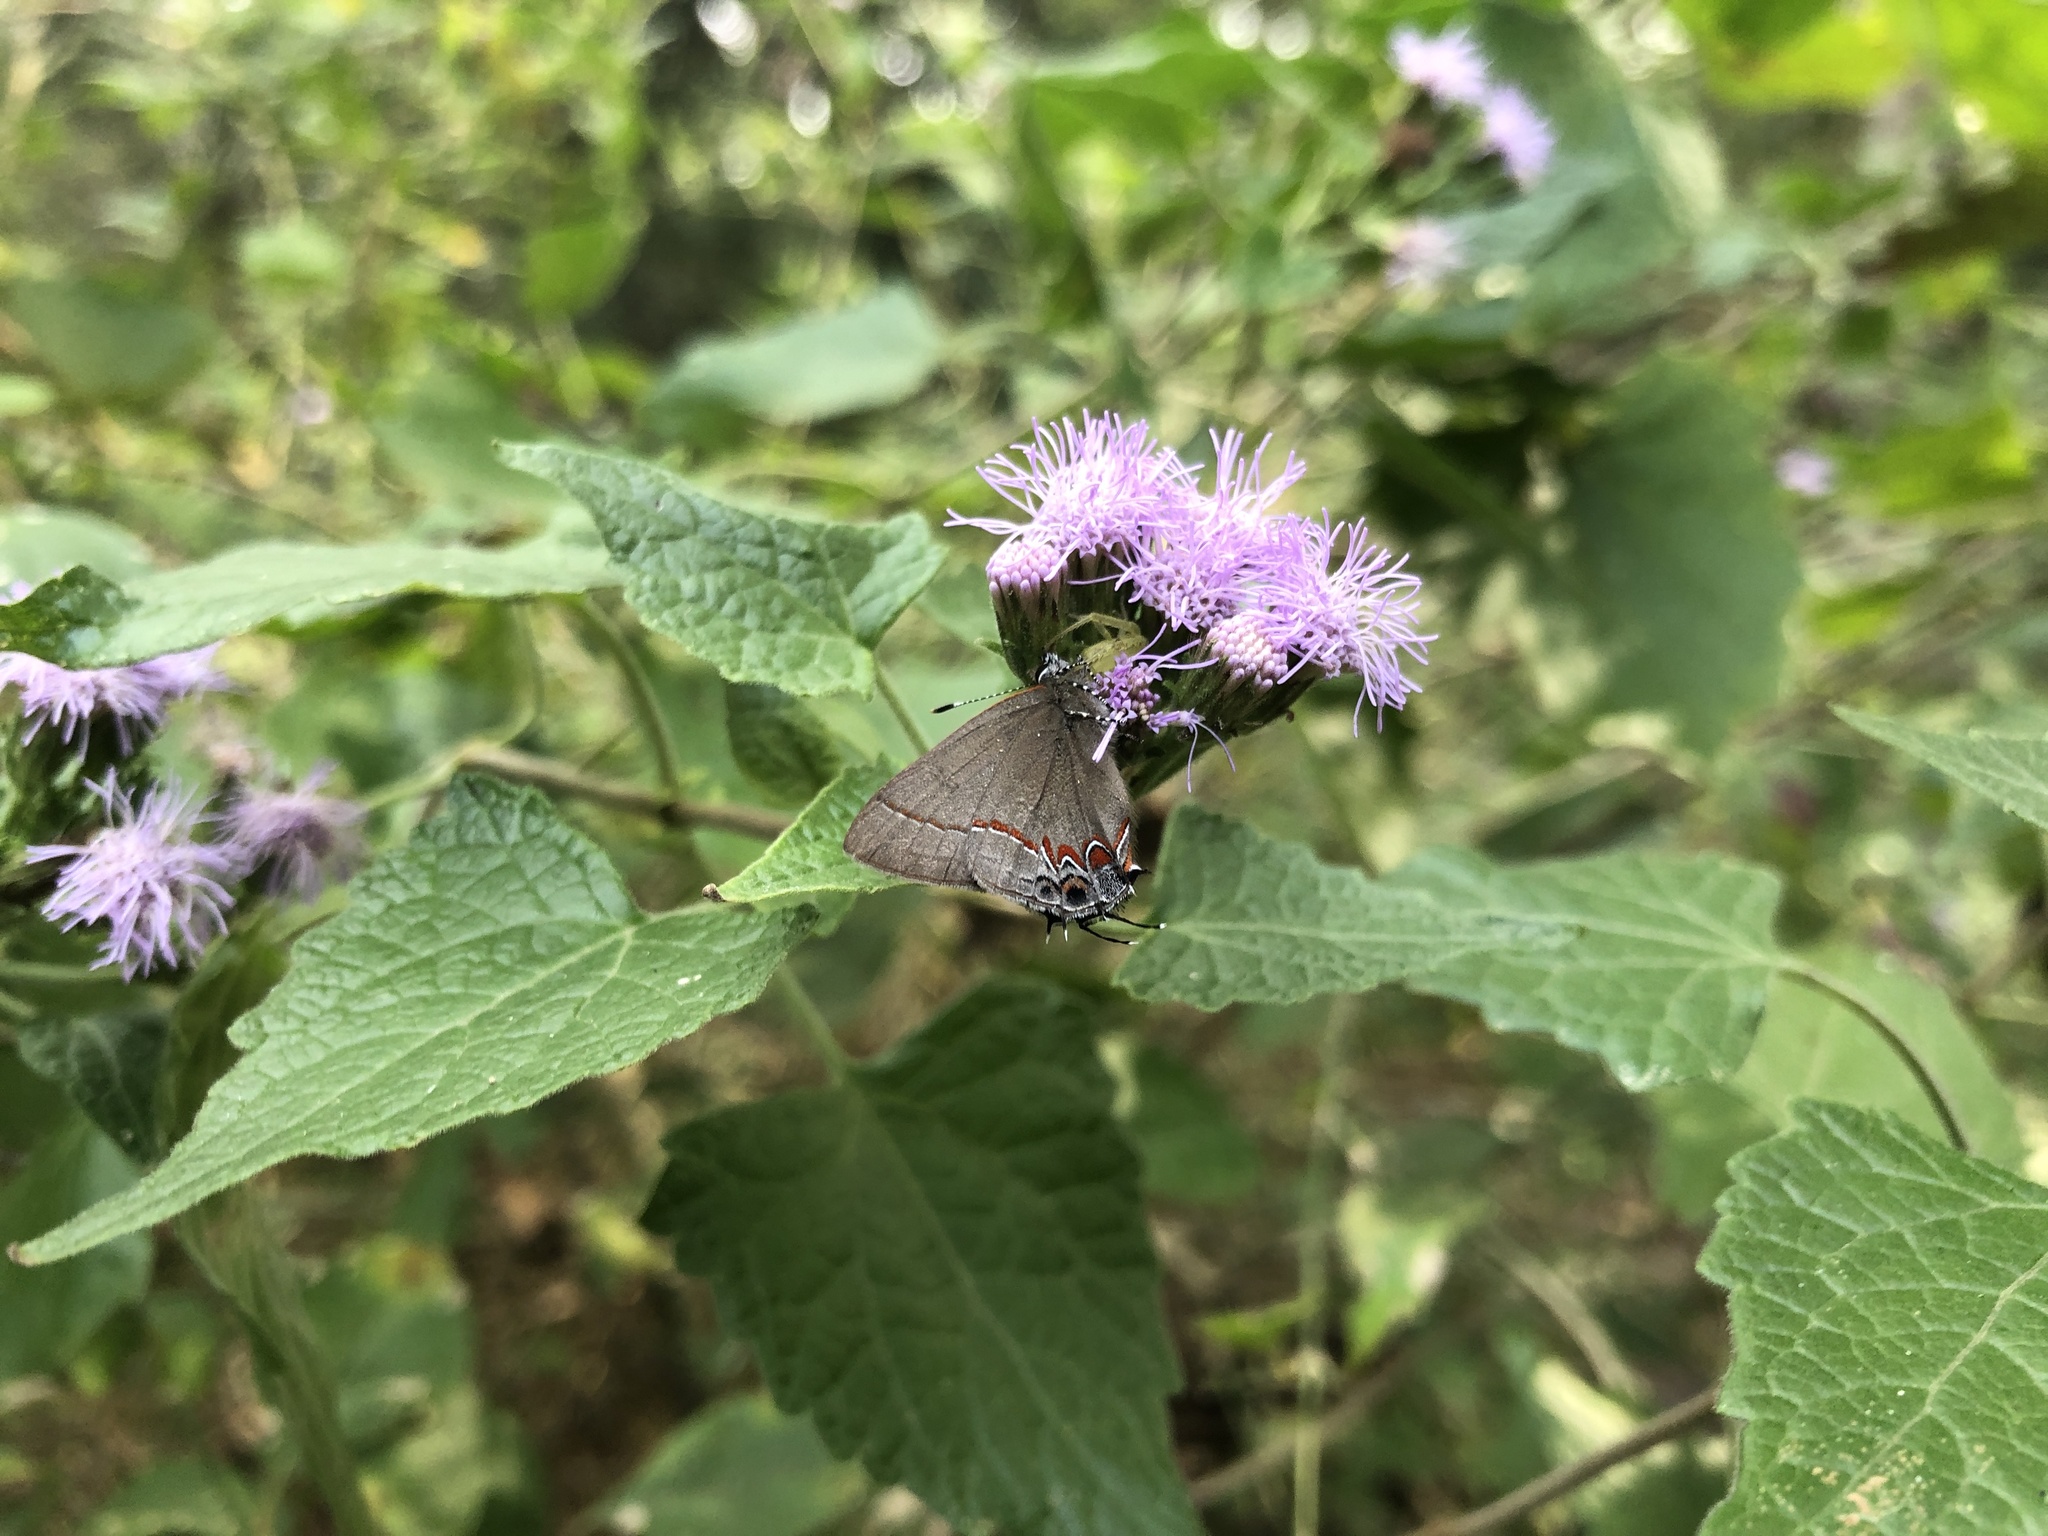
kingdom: Animalia
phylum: Arthropoda
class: Insecta
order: Lepidoptera
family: Lycaenidae
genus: Calycopis
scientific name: Calycopis isobeon
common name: Dusky-blue groundstreak
